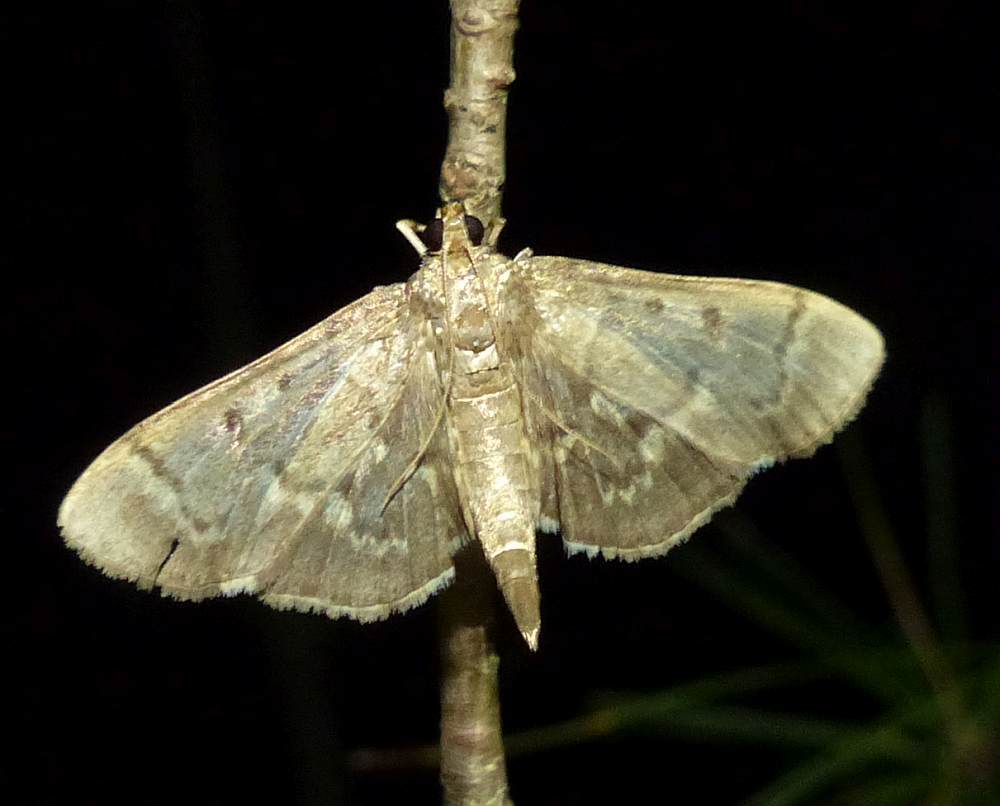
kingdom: Animalia
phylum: Arthropoda
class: Insecta
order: Lepidoptera
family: Crambidae
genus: Herpetogramma
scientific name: Herpetogramma aeglealis
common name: Serpentine webworm moth
